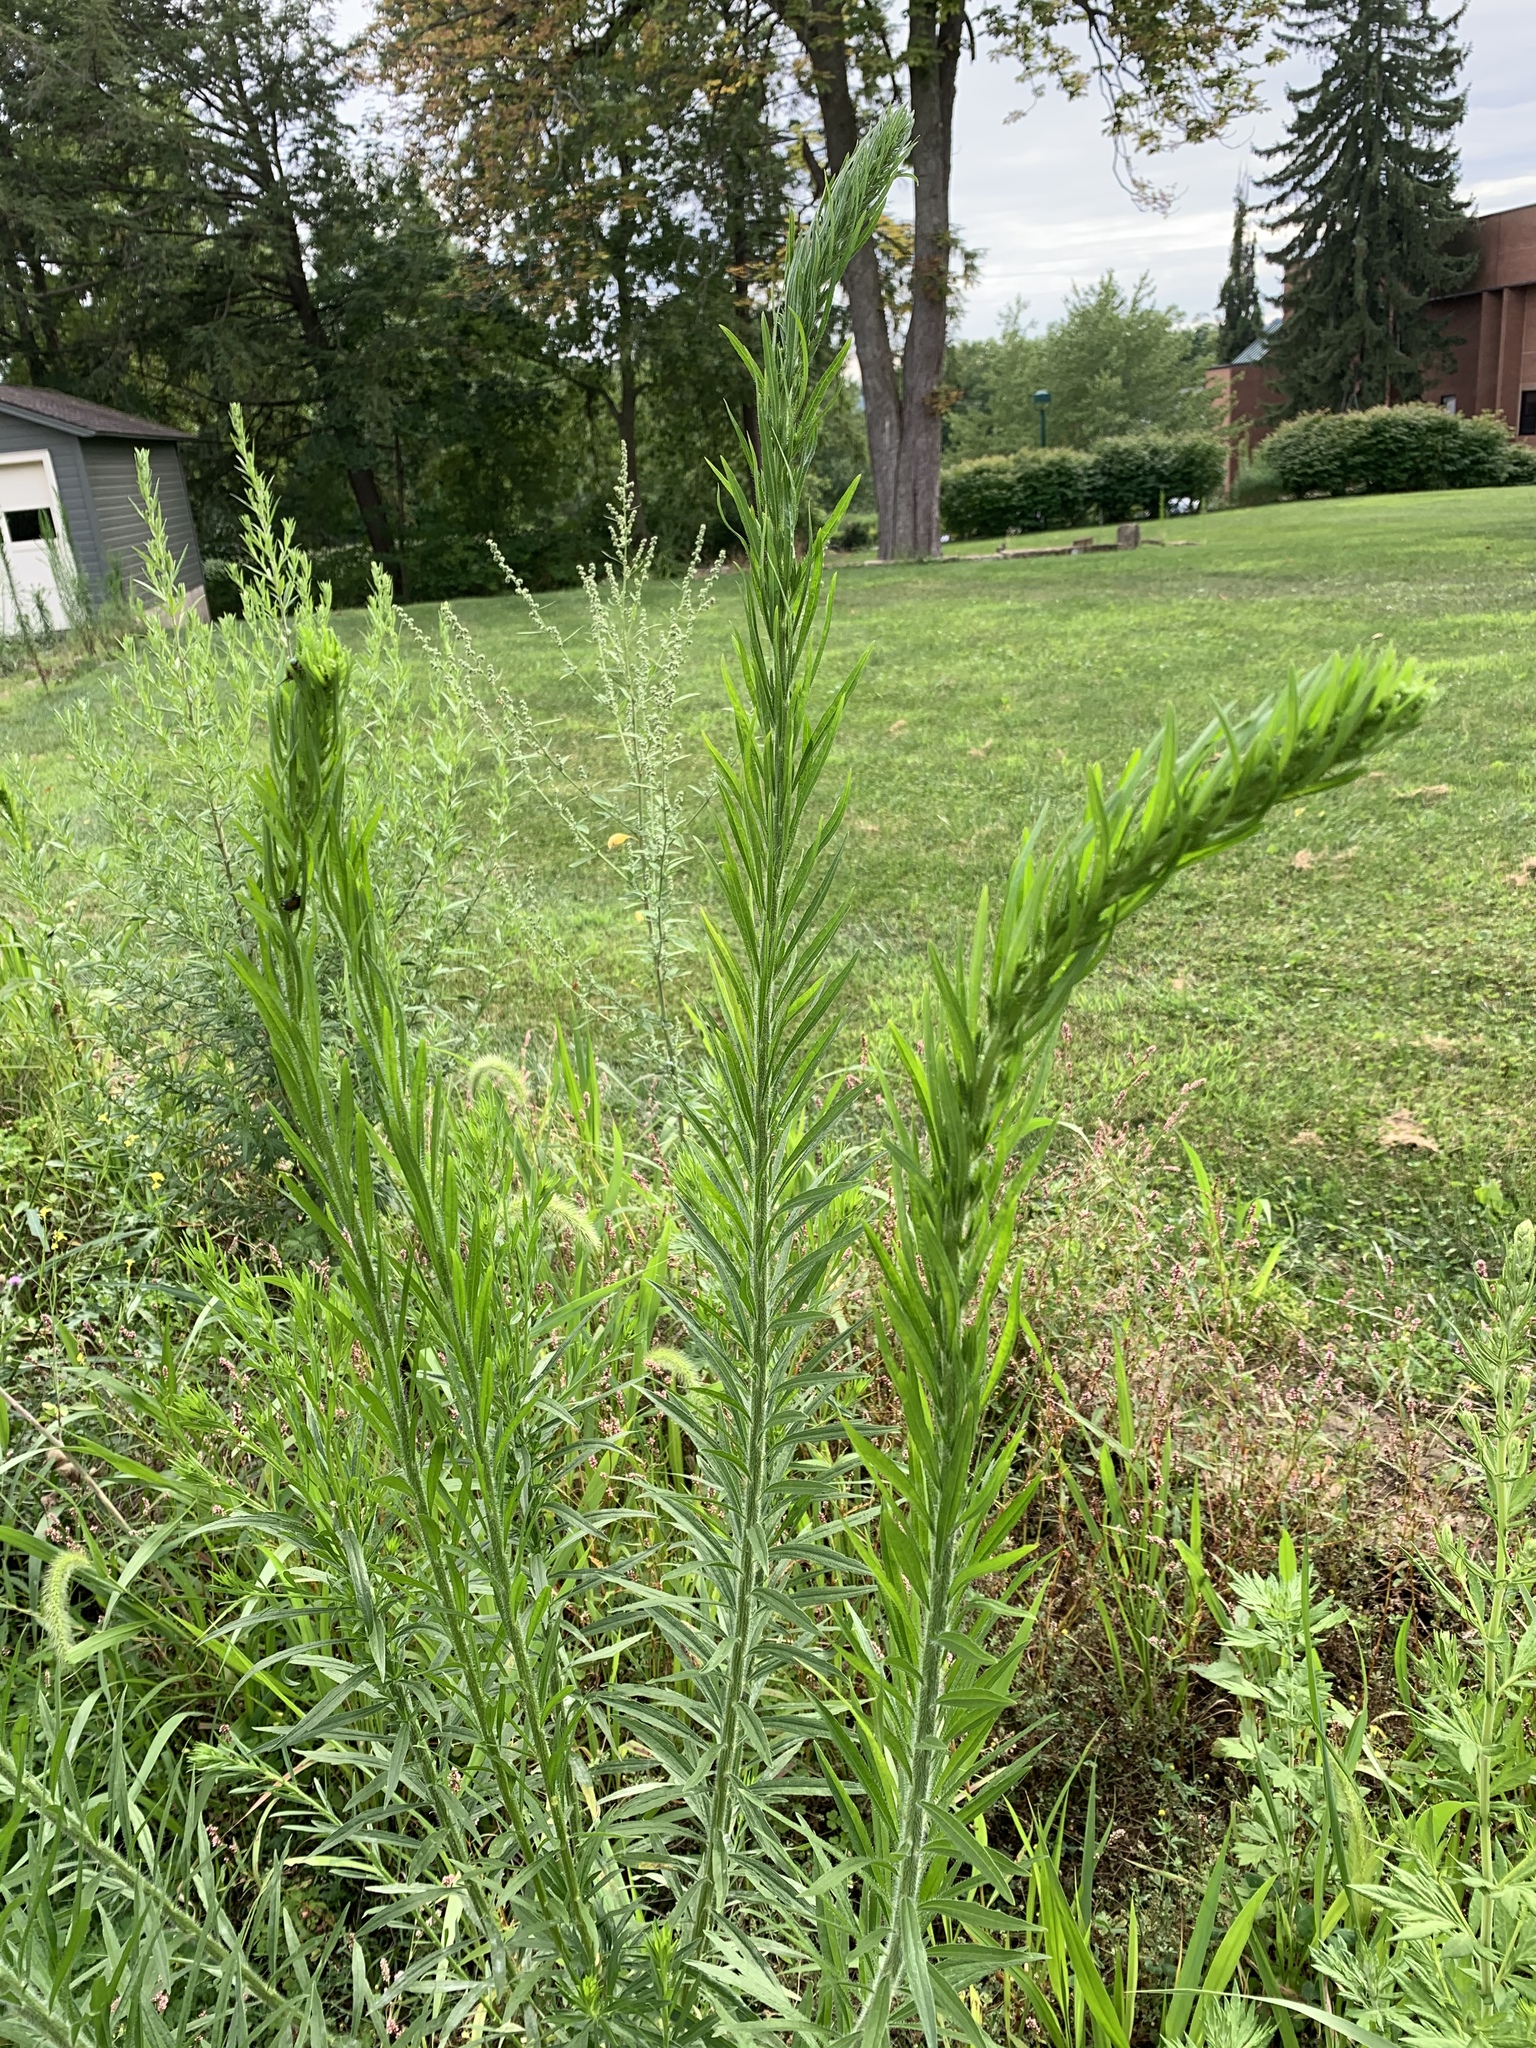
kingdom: Plantae
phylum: Tracheophyta
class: Magnoliopsida
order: Asterales
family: Asteraceae
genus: Erigeron
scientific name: Erigeron canadensis
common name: Canadian fleabane
